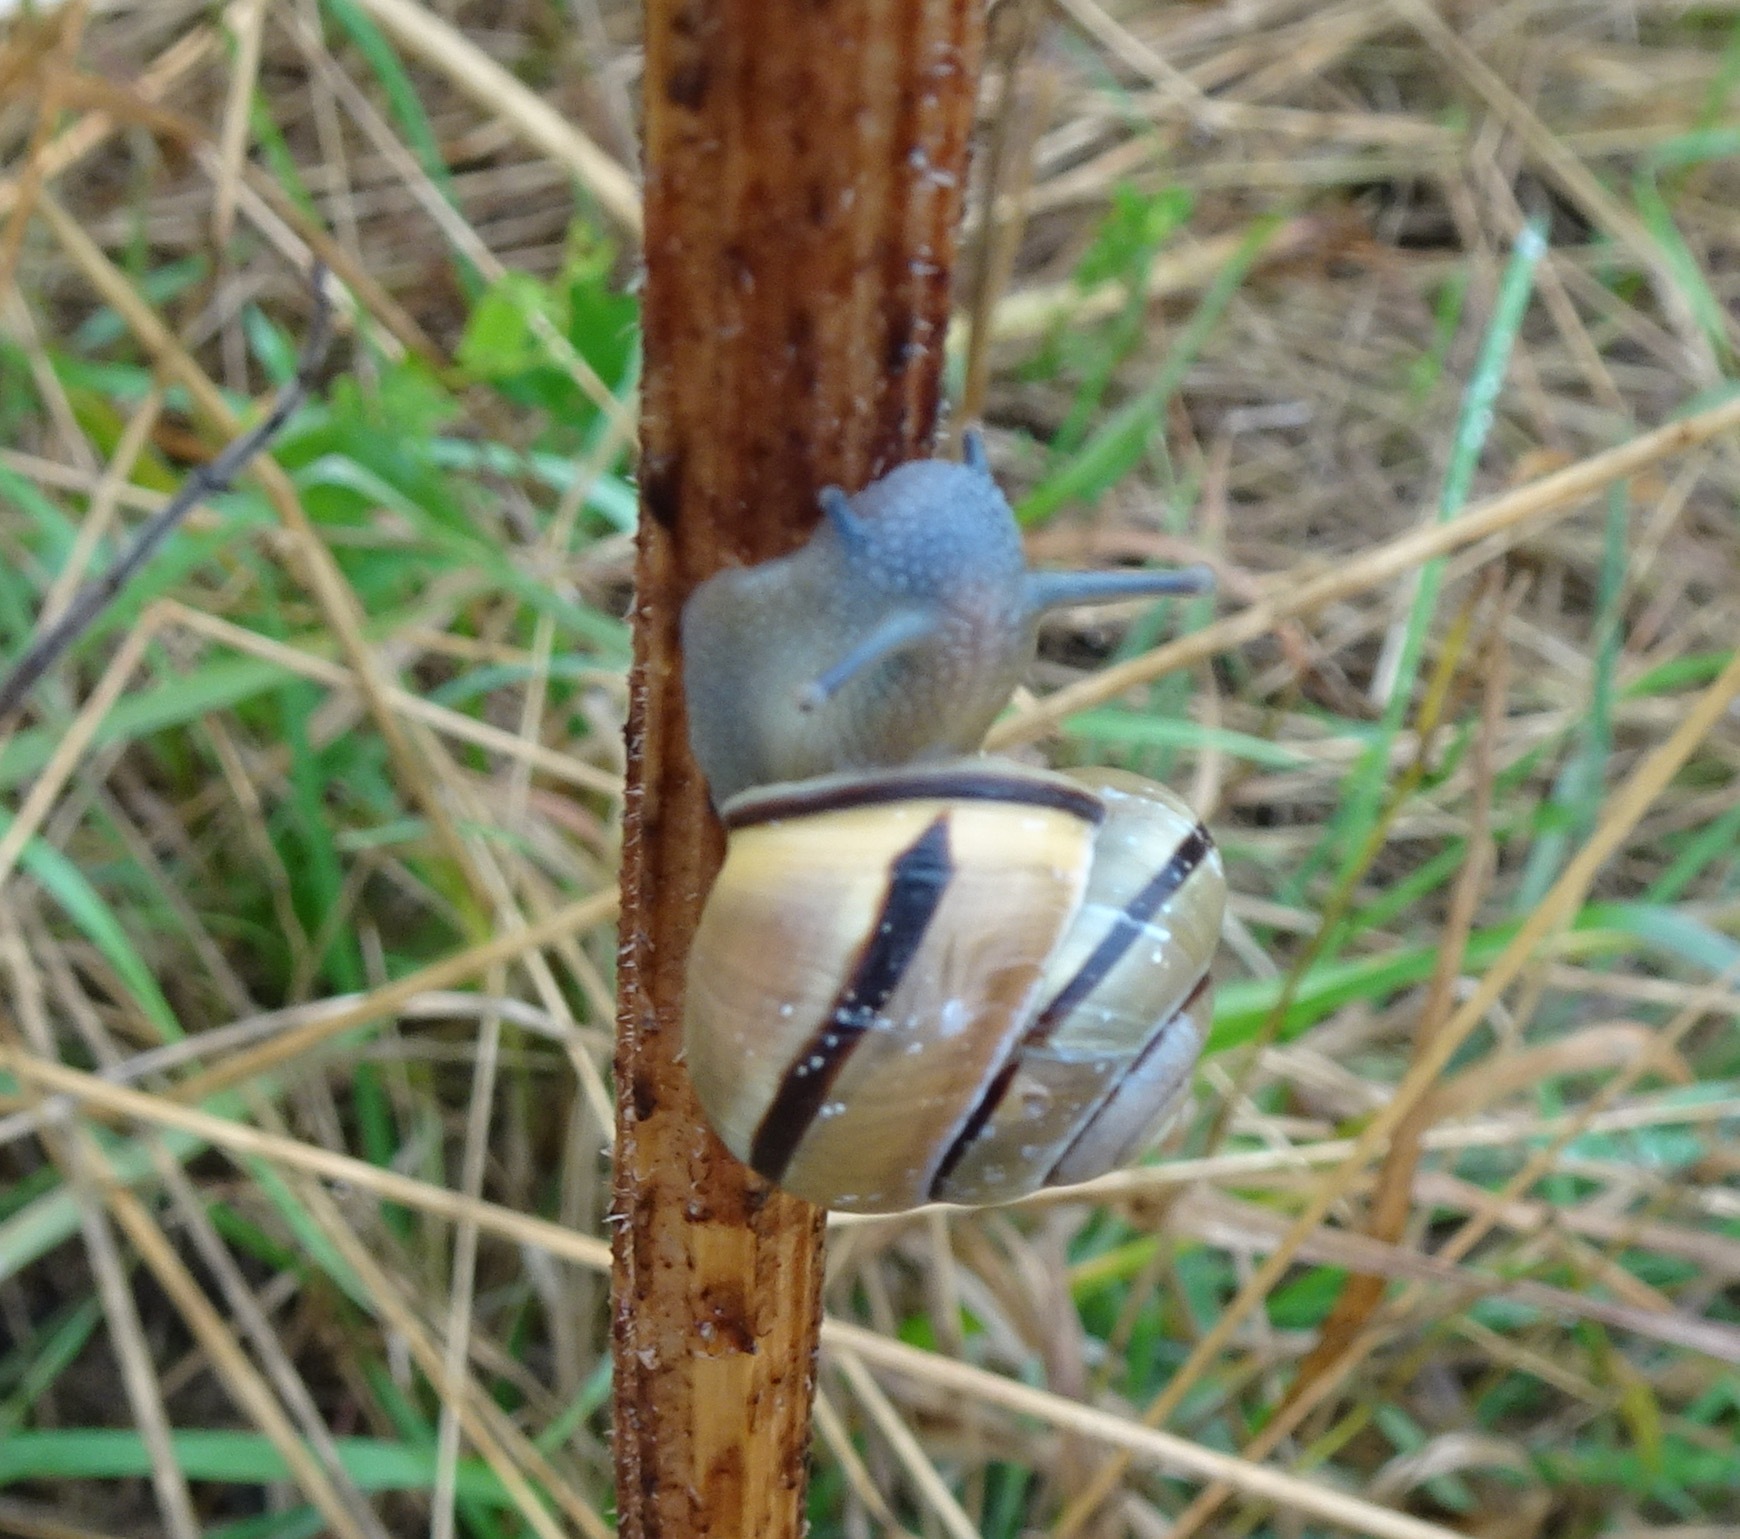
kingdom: Animalia
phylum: Mollusca
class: Gastropoda
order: Stylommatophora
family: Helicidae
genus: Cepaea
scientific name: Cepaea nemoralis
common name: Grovesnail
